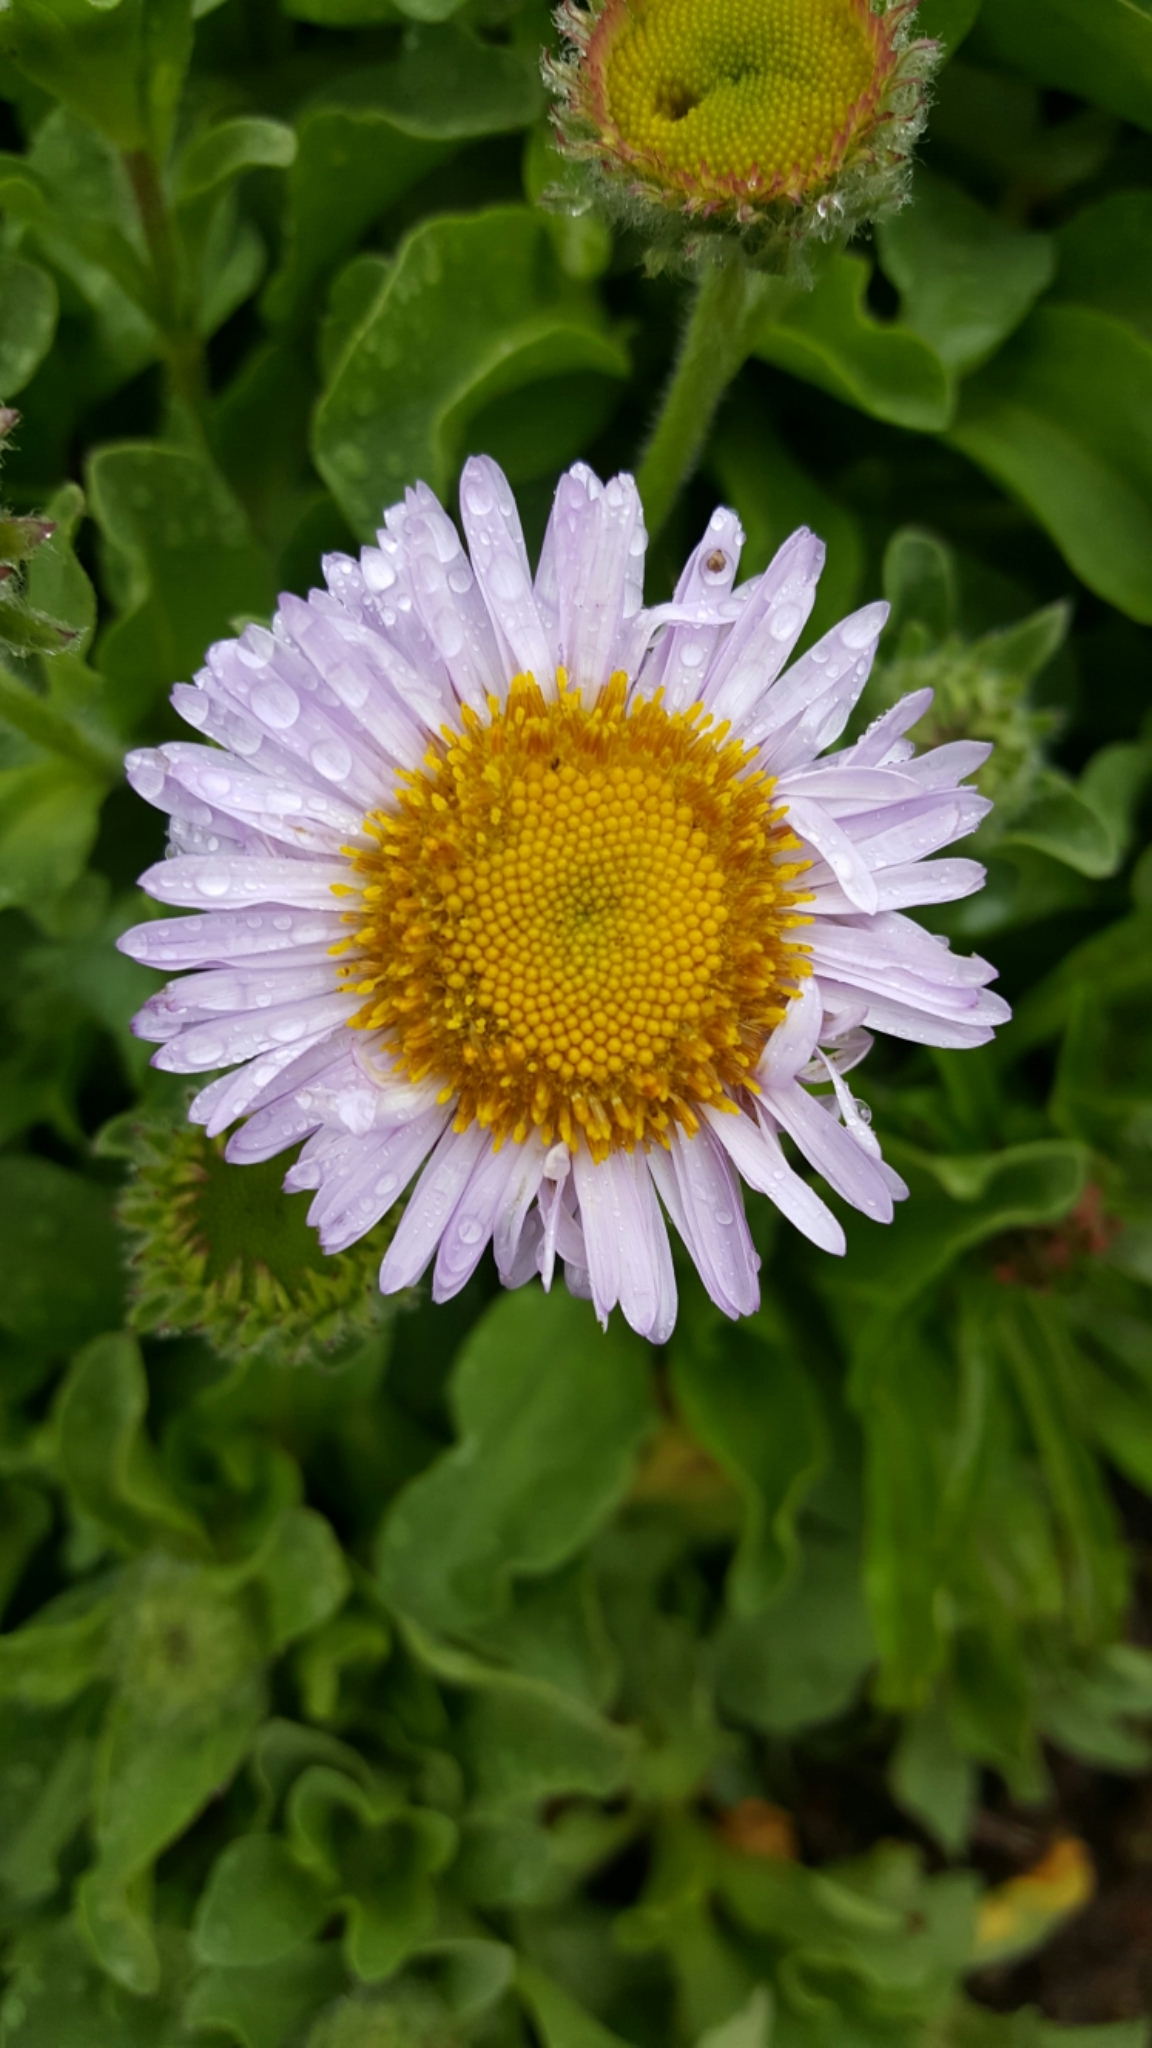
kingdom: Plantae
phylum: Tracheophyta
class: Magnoliopsida
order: Asterales
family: Asteraceae
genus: Erigeron
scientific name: Erigeron glaucus
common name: Seaside daisy
